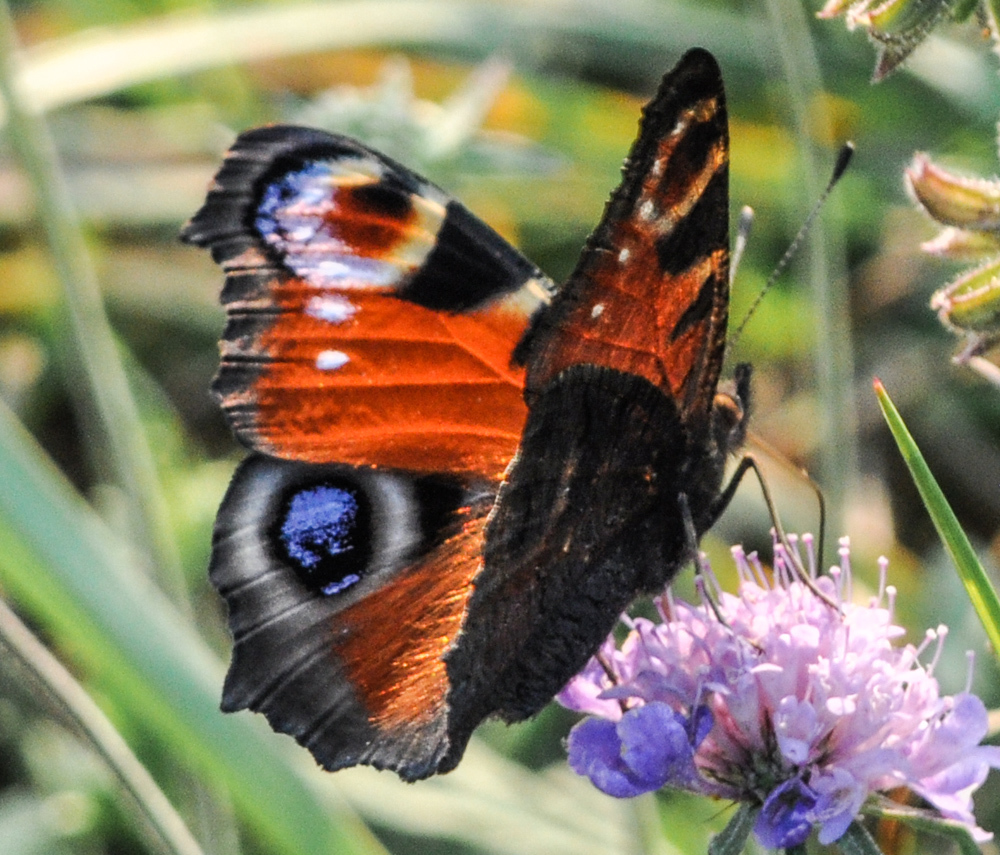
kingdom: Animalia
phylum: Arthropoda
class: Insecta
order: Lepidoptera
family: Nymphalidae
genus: Aglais
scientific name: Aglais io
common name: Peacock
